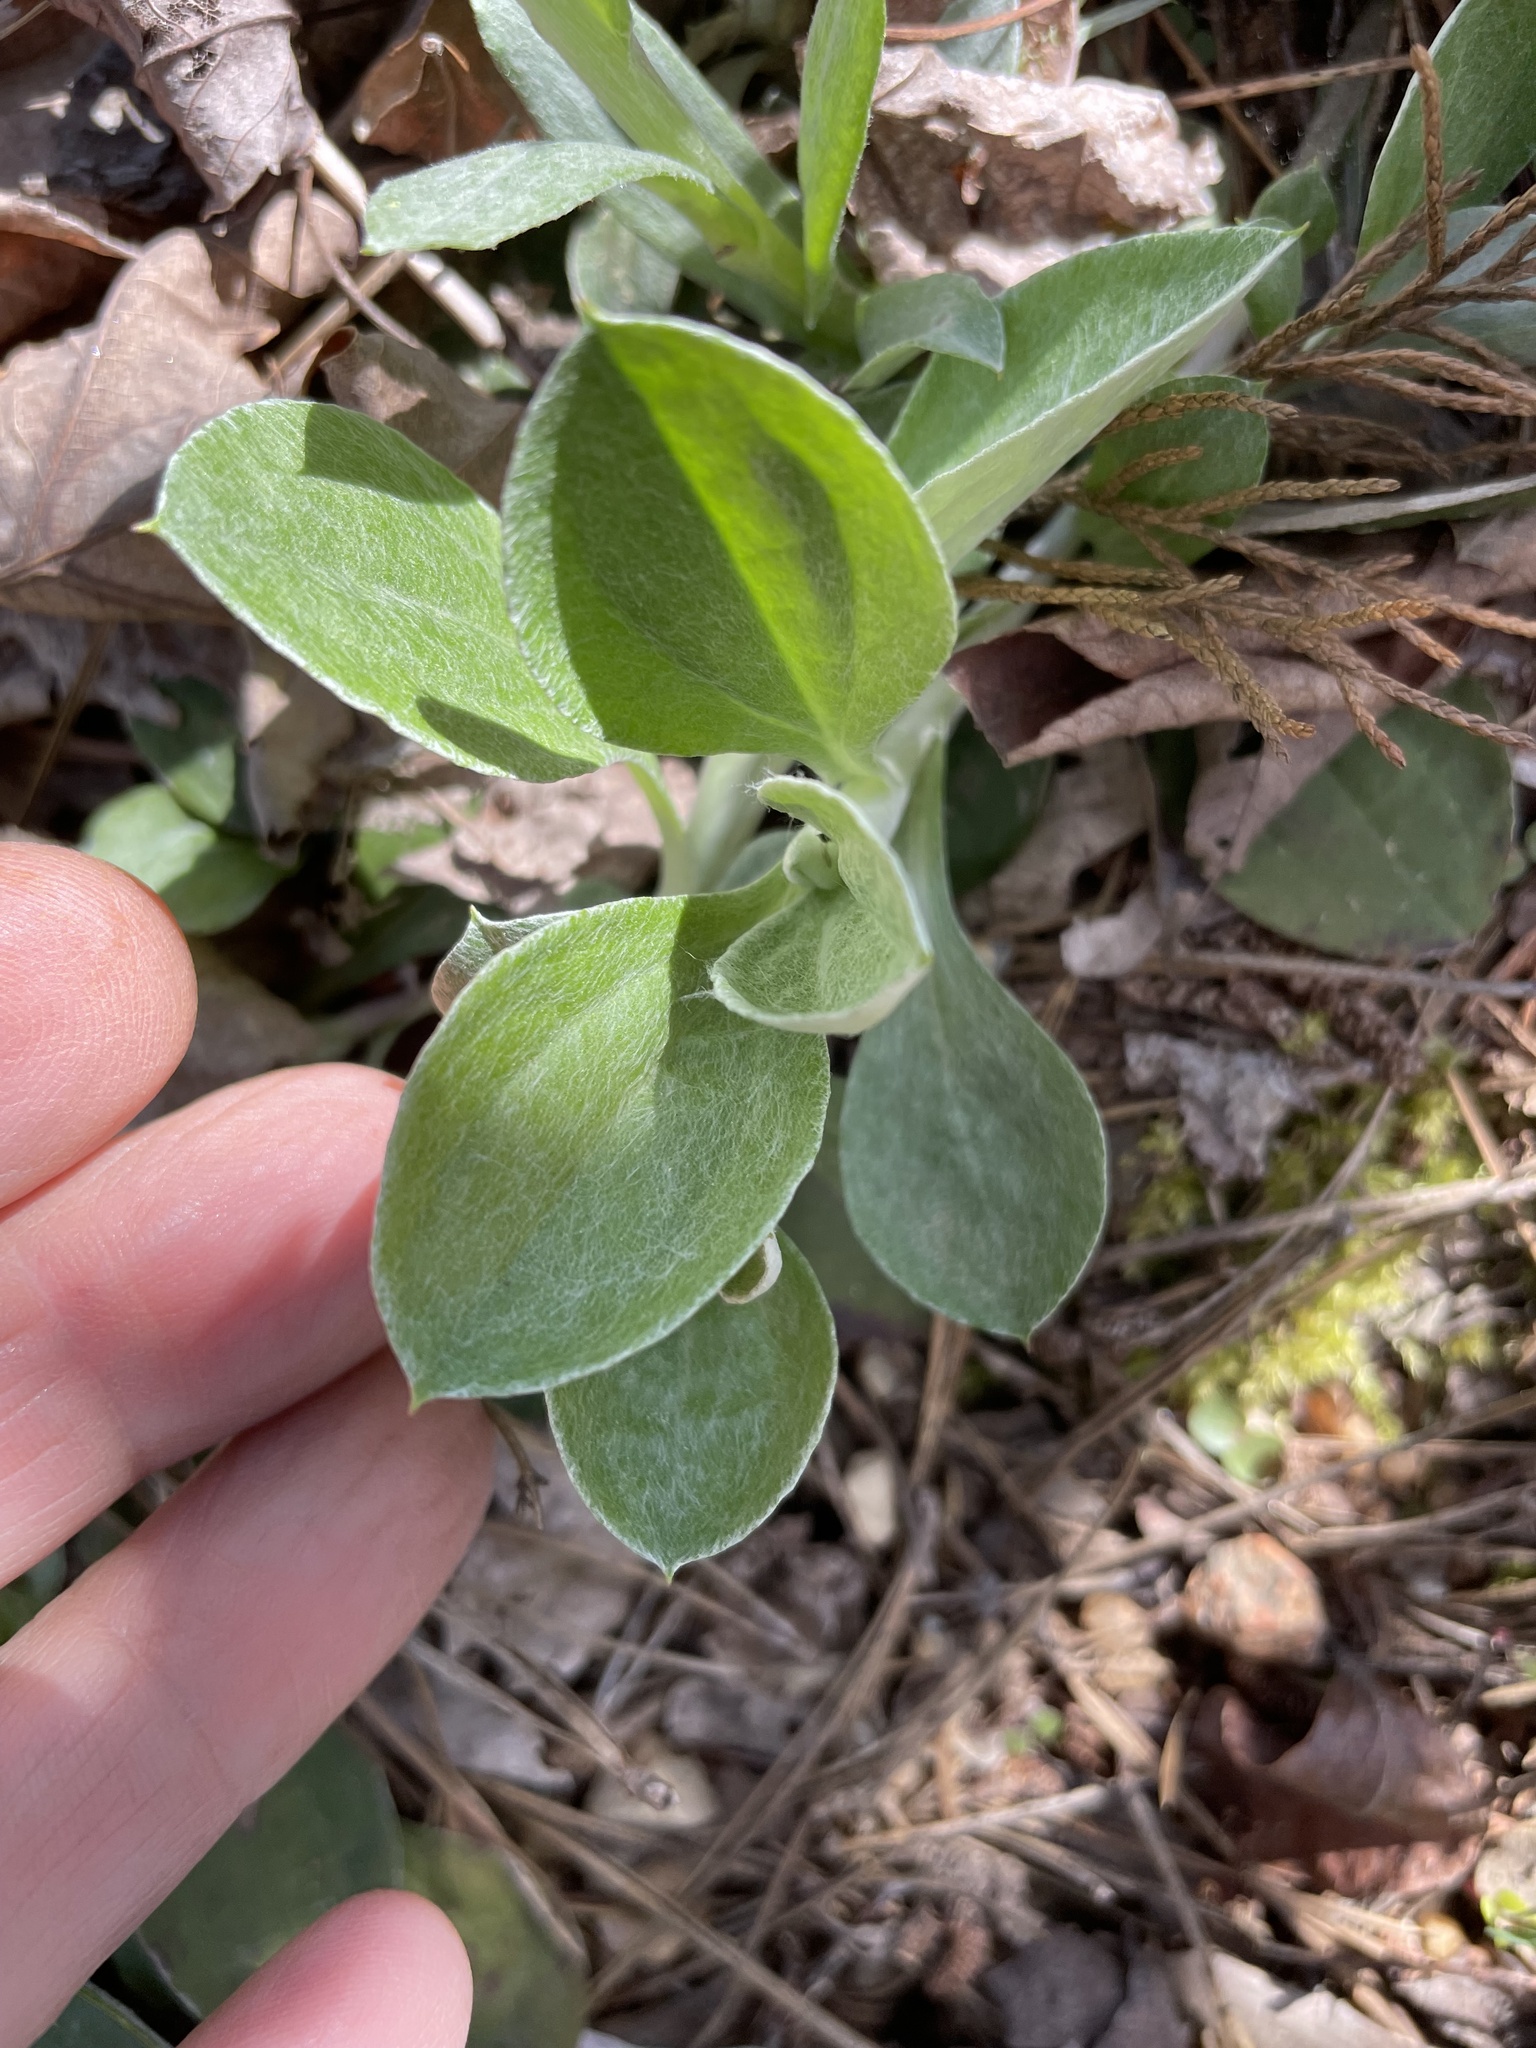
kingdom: Plantae
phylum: Tracheophyta
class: Magnoliopsida
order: Asterales
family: Asteraceae
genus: Antennaria
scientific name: Antennaria parlinii
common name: Parlin's pussytoes
